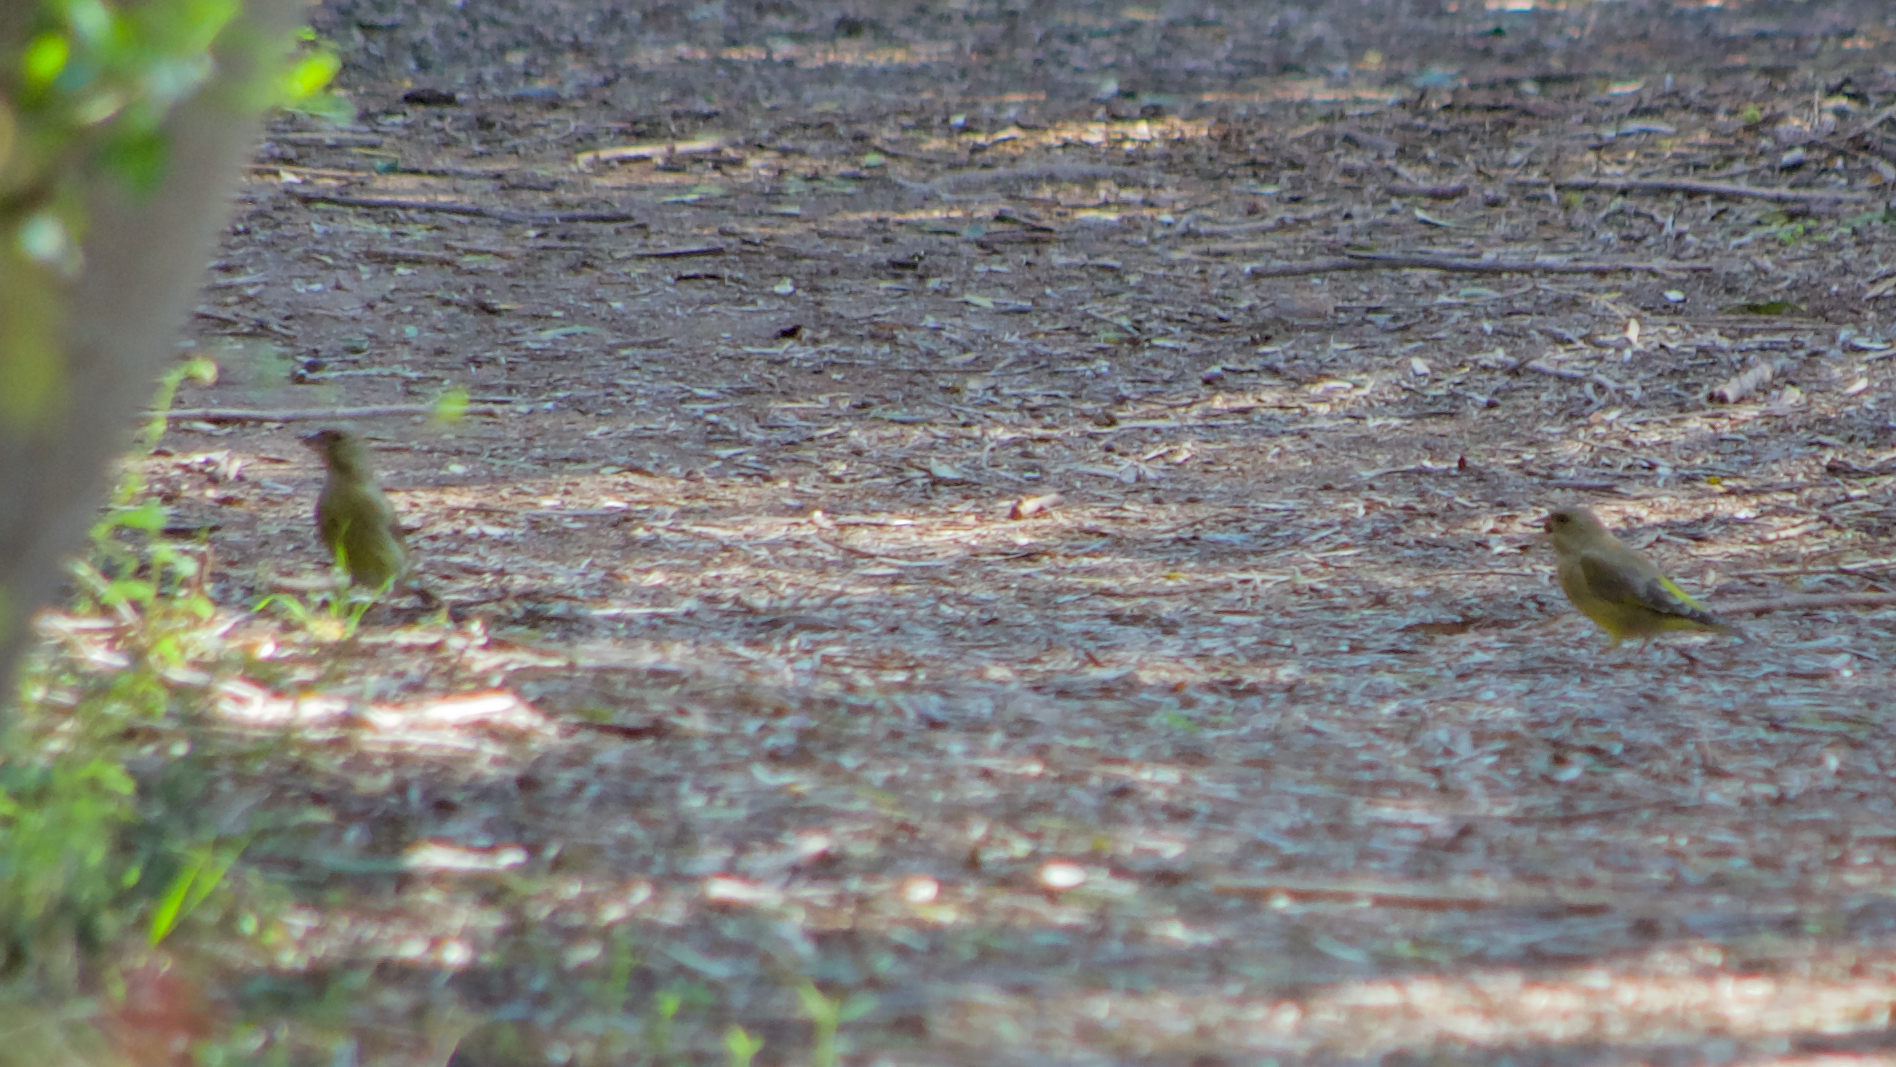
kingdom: Plantae
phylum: Tracheophyta
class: Liliopsida
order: Poales
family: Poaceae
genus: Chloris
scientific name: Chloris chloris
